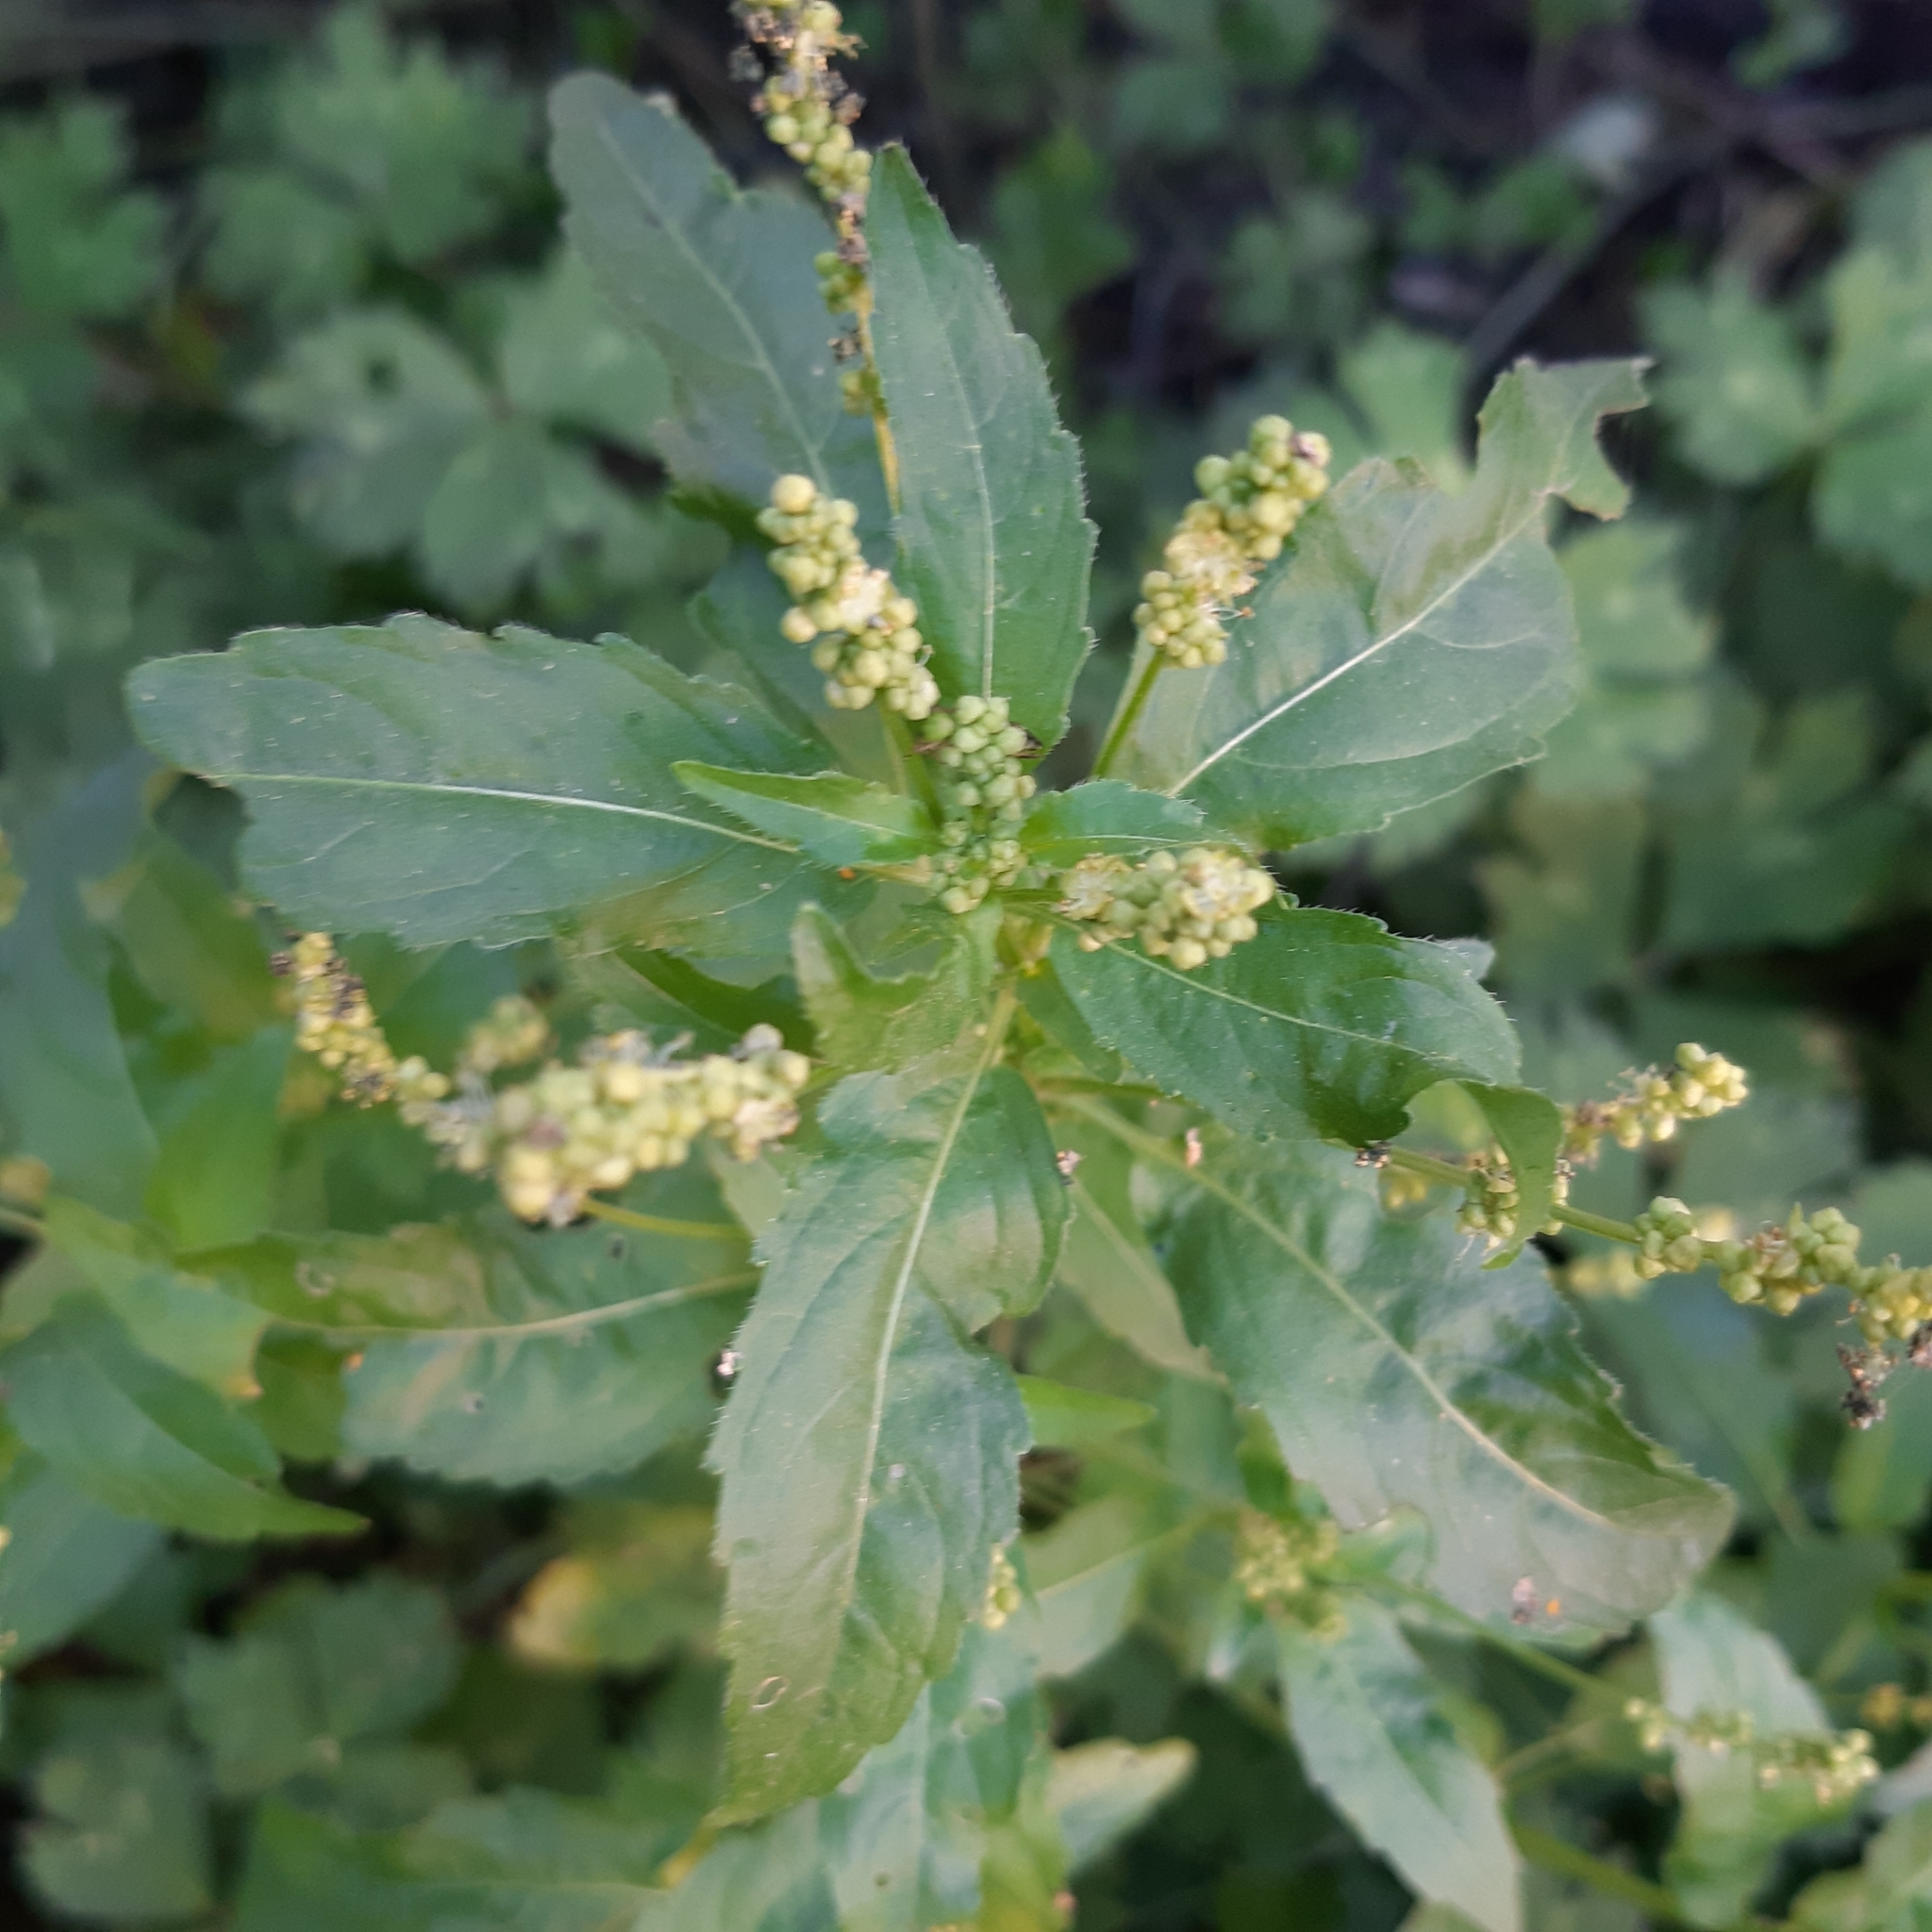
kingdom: Plantae
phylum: Tracheophyta
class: Magnoliopsida
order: Malpighiales
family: Euphorbiaceae
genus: Mercurialis
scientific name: Mercurialis annua
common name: Annual mercury
